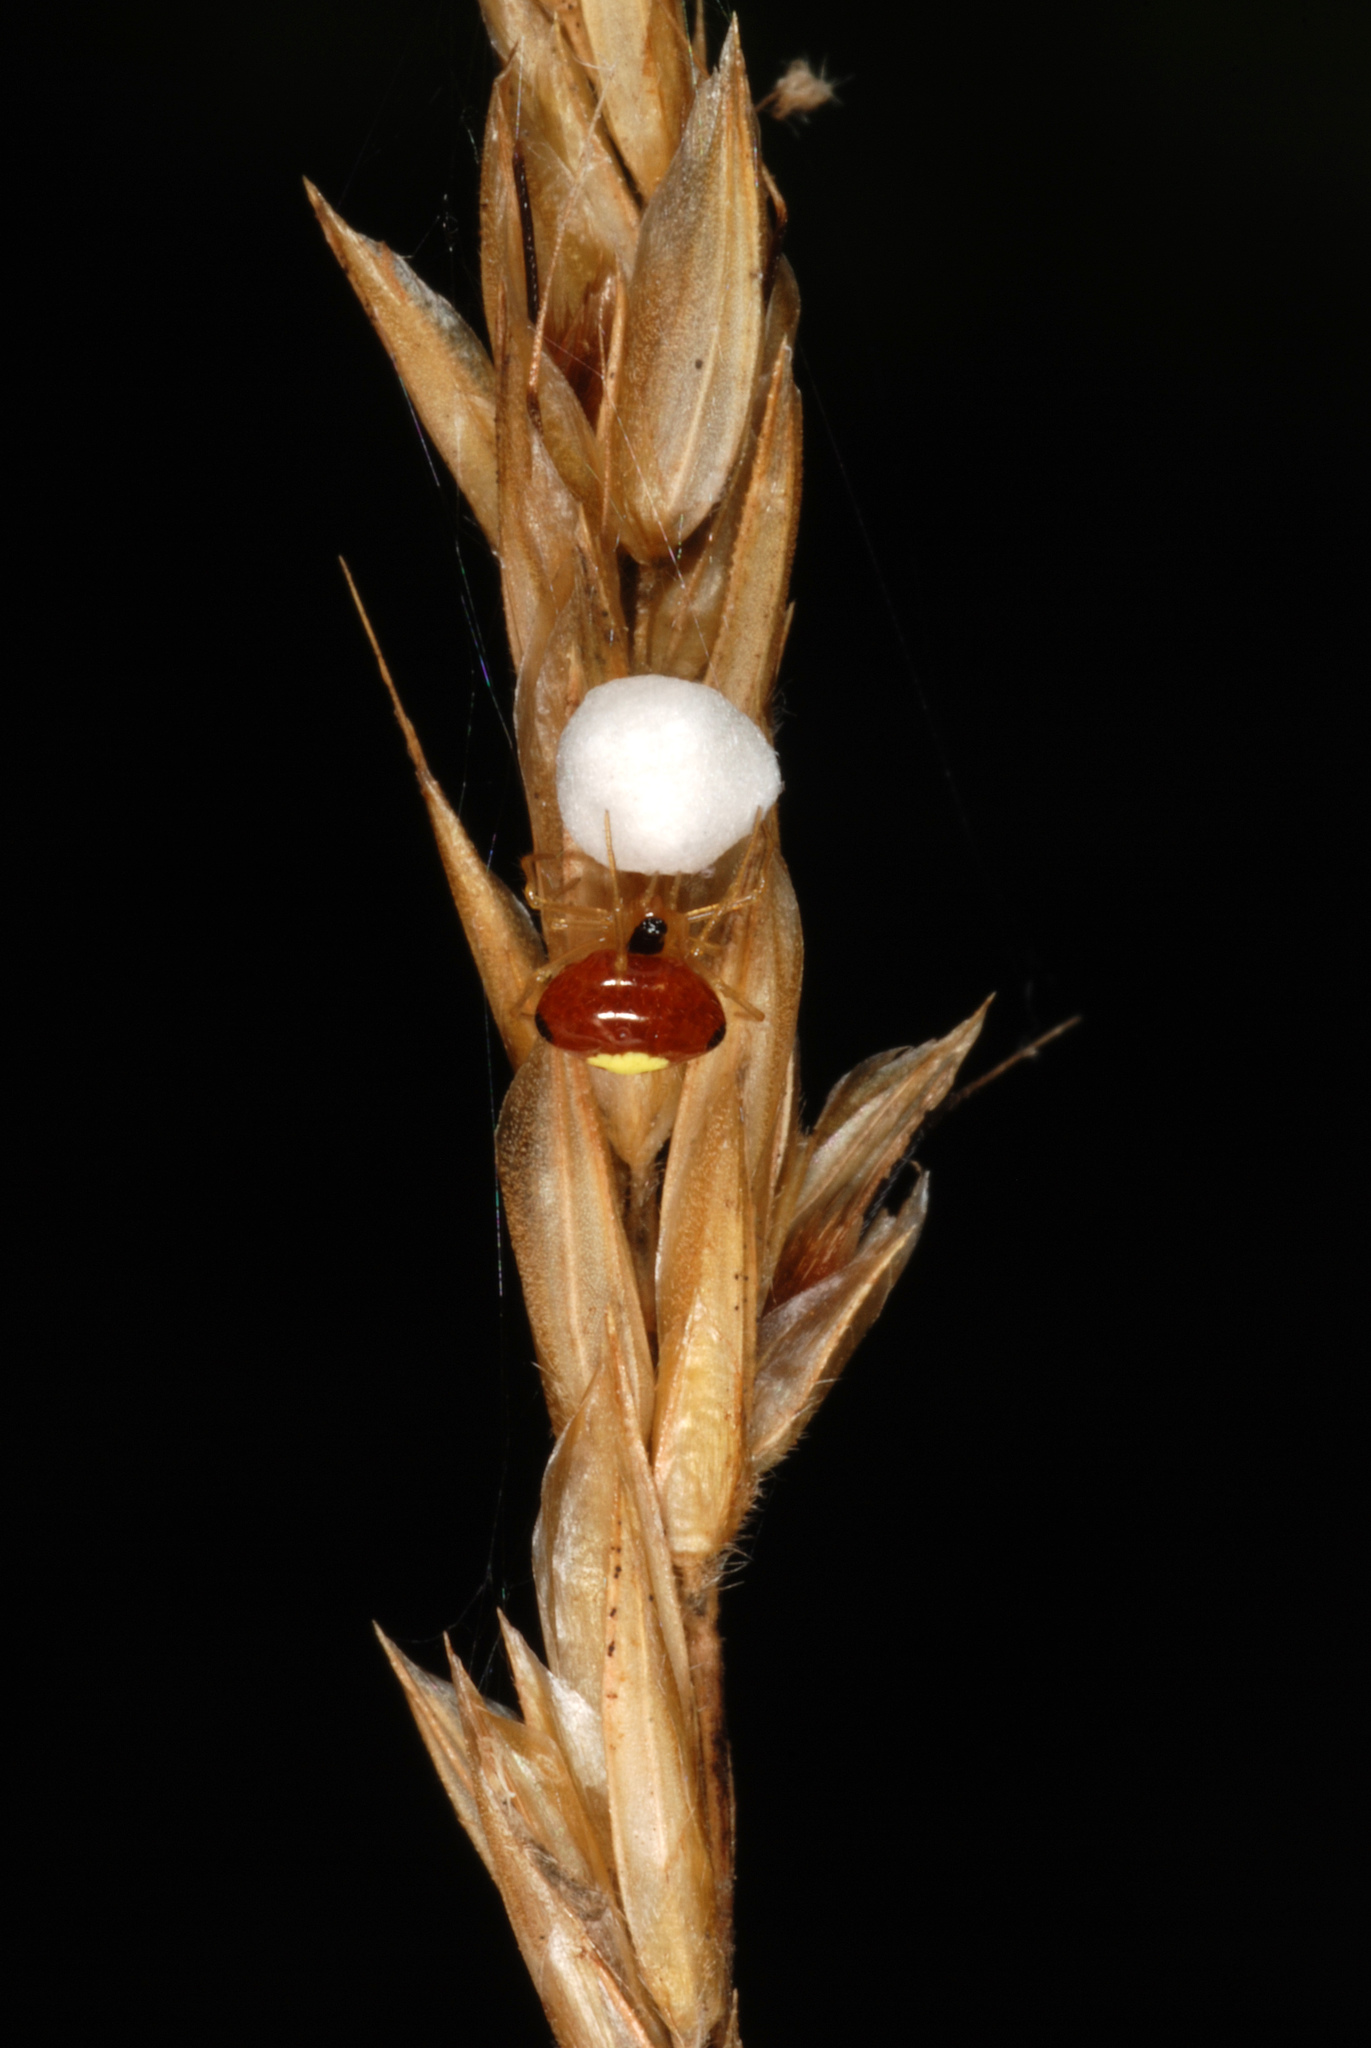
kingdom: Animalia
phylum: Arthropoda
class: Arachnida
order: Araneae
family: Theridiidae
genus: Theridula
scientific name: Theridula emertoni
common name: Emerton's bitubercled cobweaver
